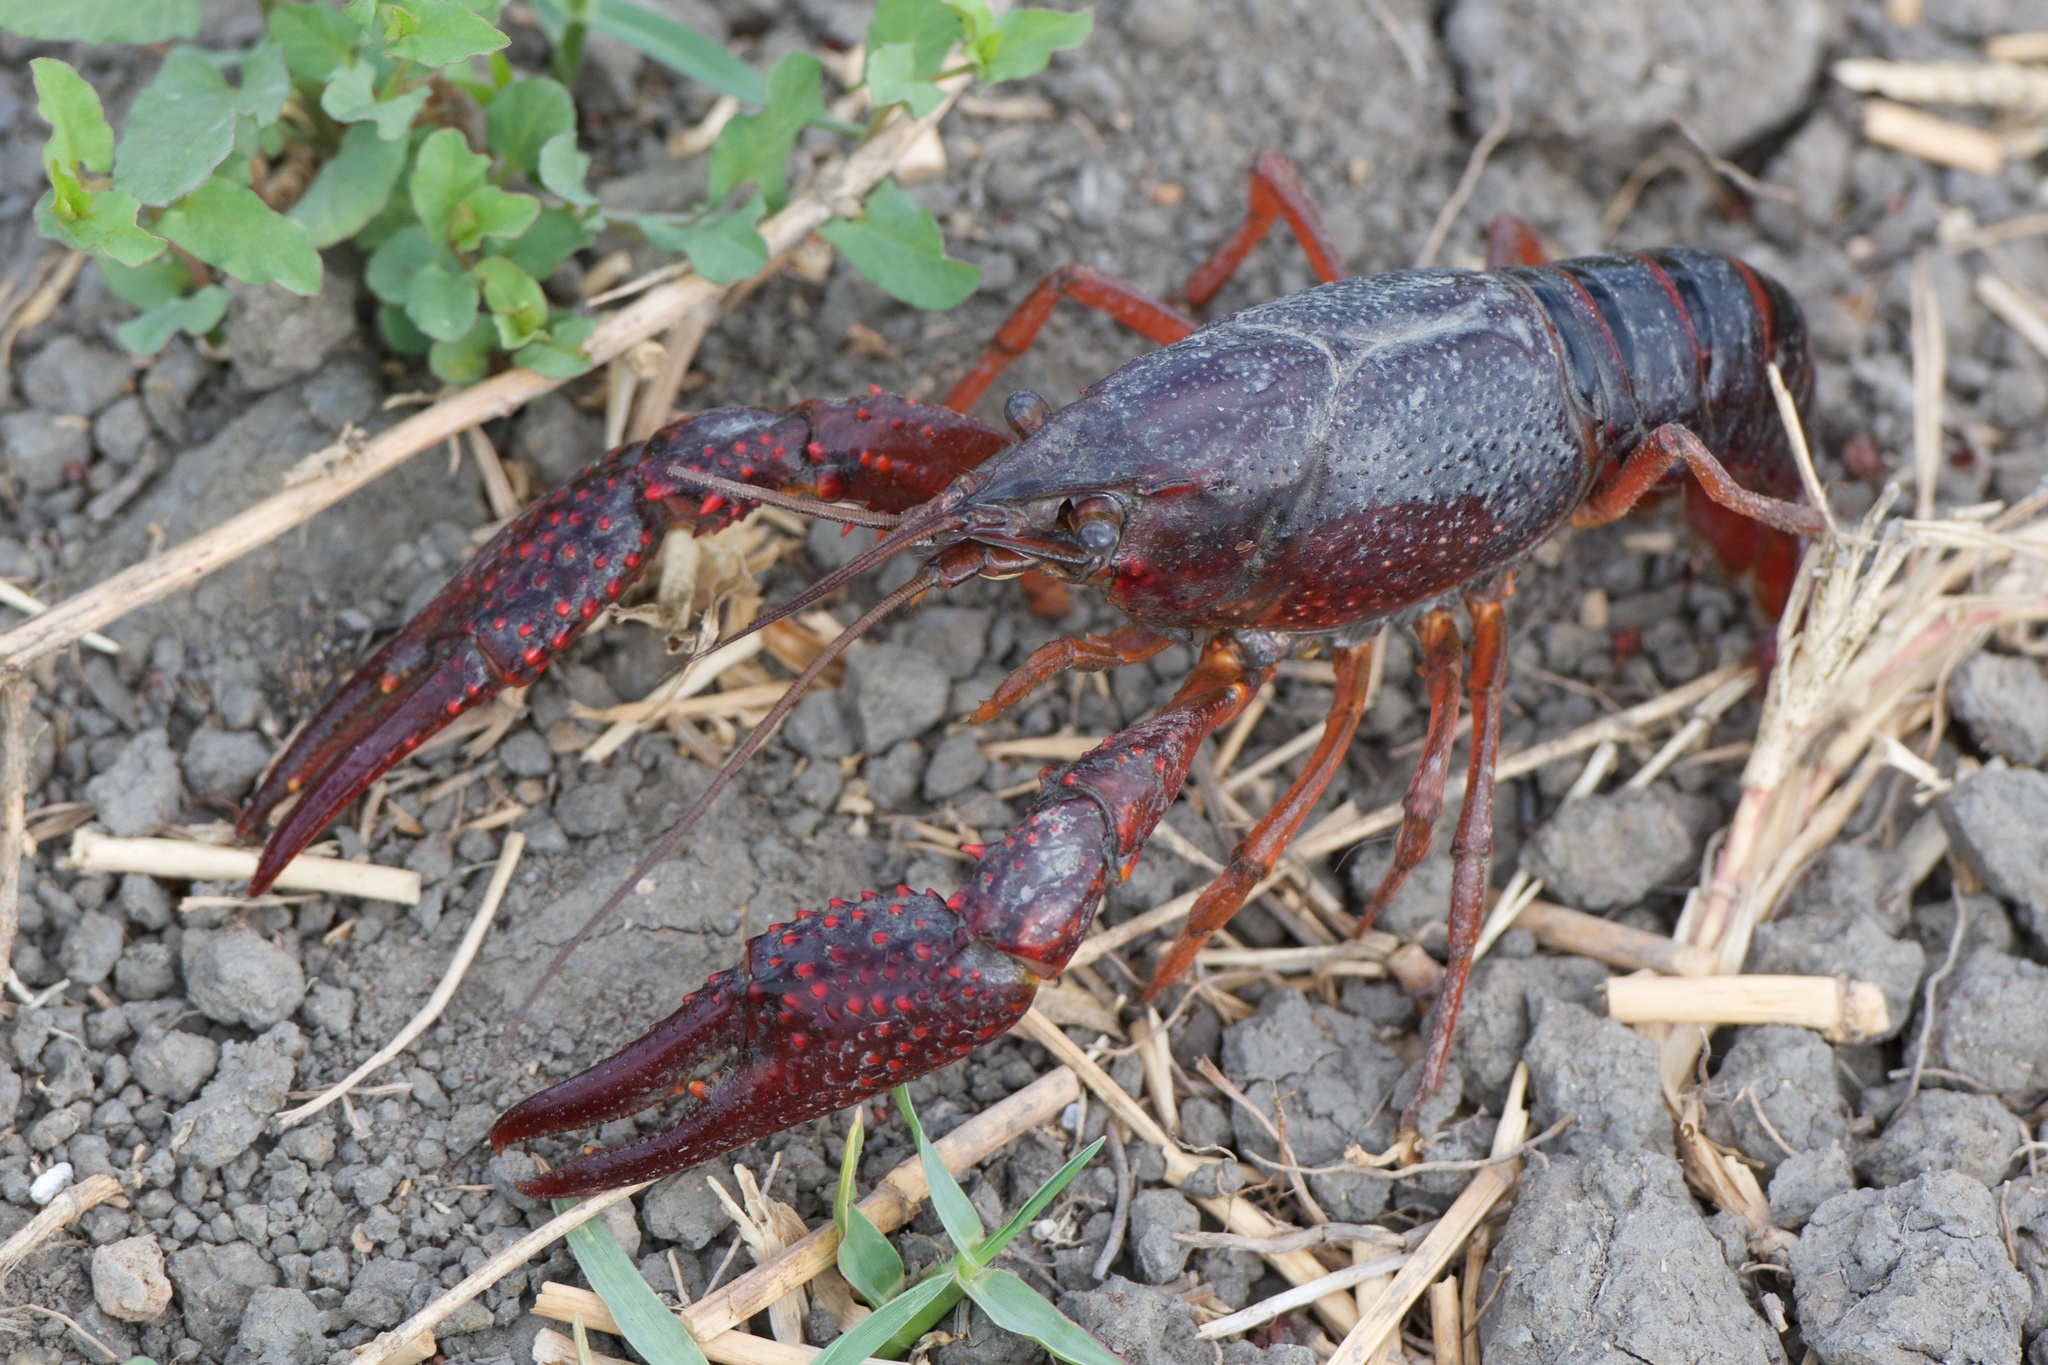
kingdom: Animalia
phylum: Arthropoda
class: Malacostraca
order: Decapoda
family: Cambaridae
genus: Procambarus
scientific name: Procambarus clarkii
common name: Red swamp crayfish
